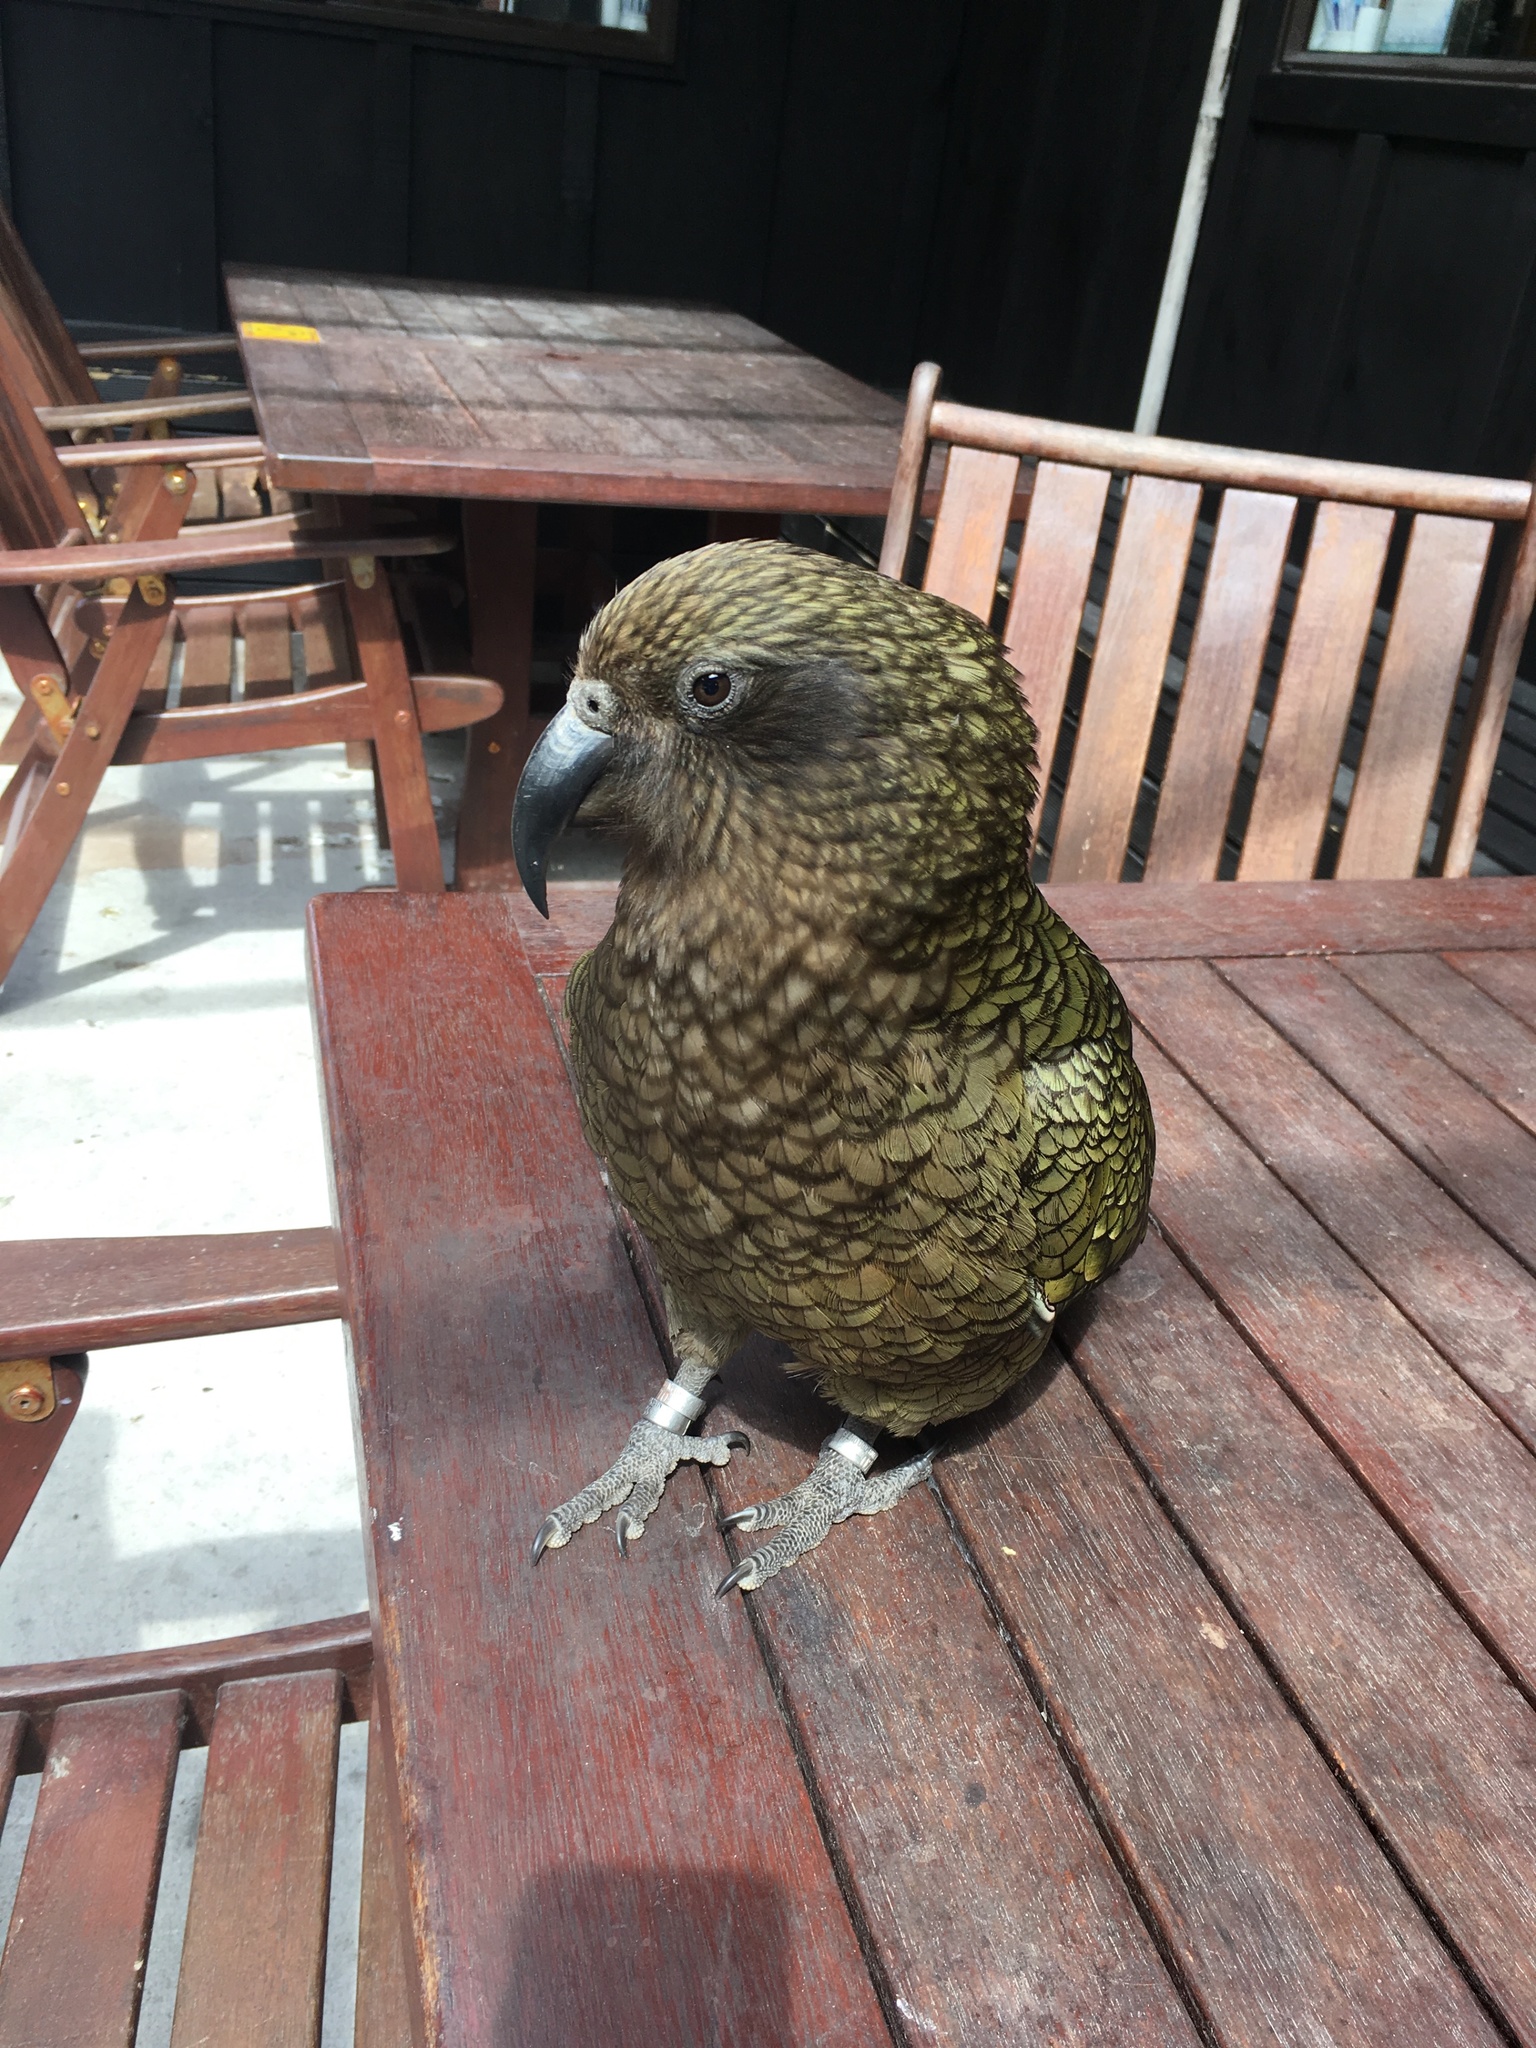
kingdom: Animalia
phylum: Chordata
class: Aves
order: Psittaciformes
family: Psittacidae
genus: Nestor
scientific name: Nestor notabilis
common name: Kea
